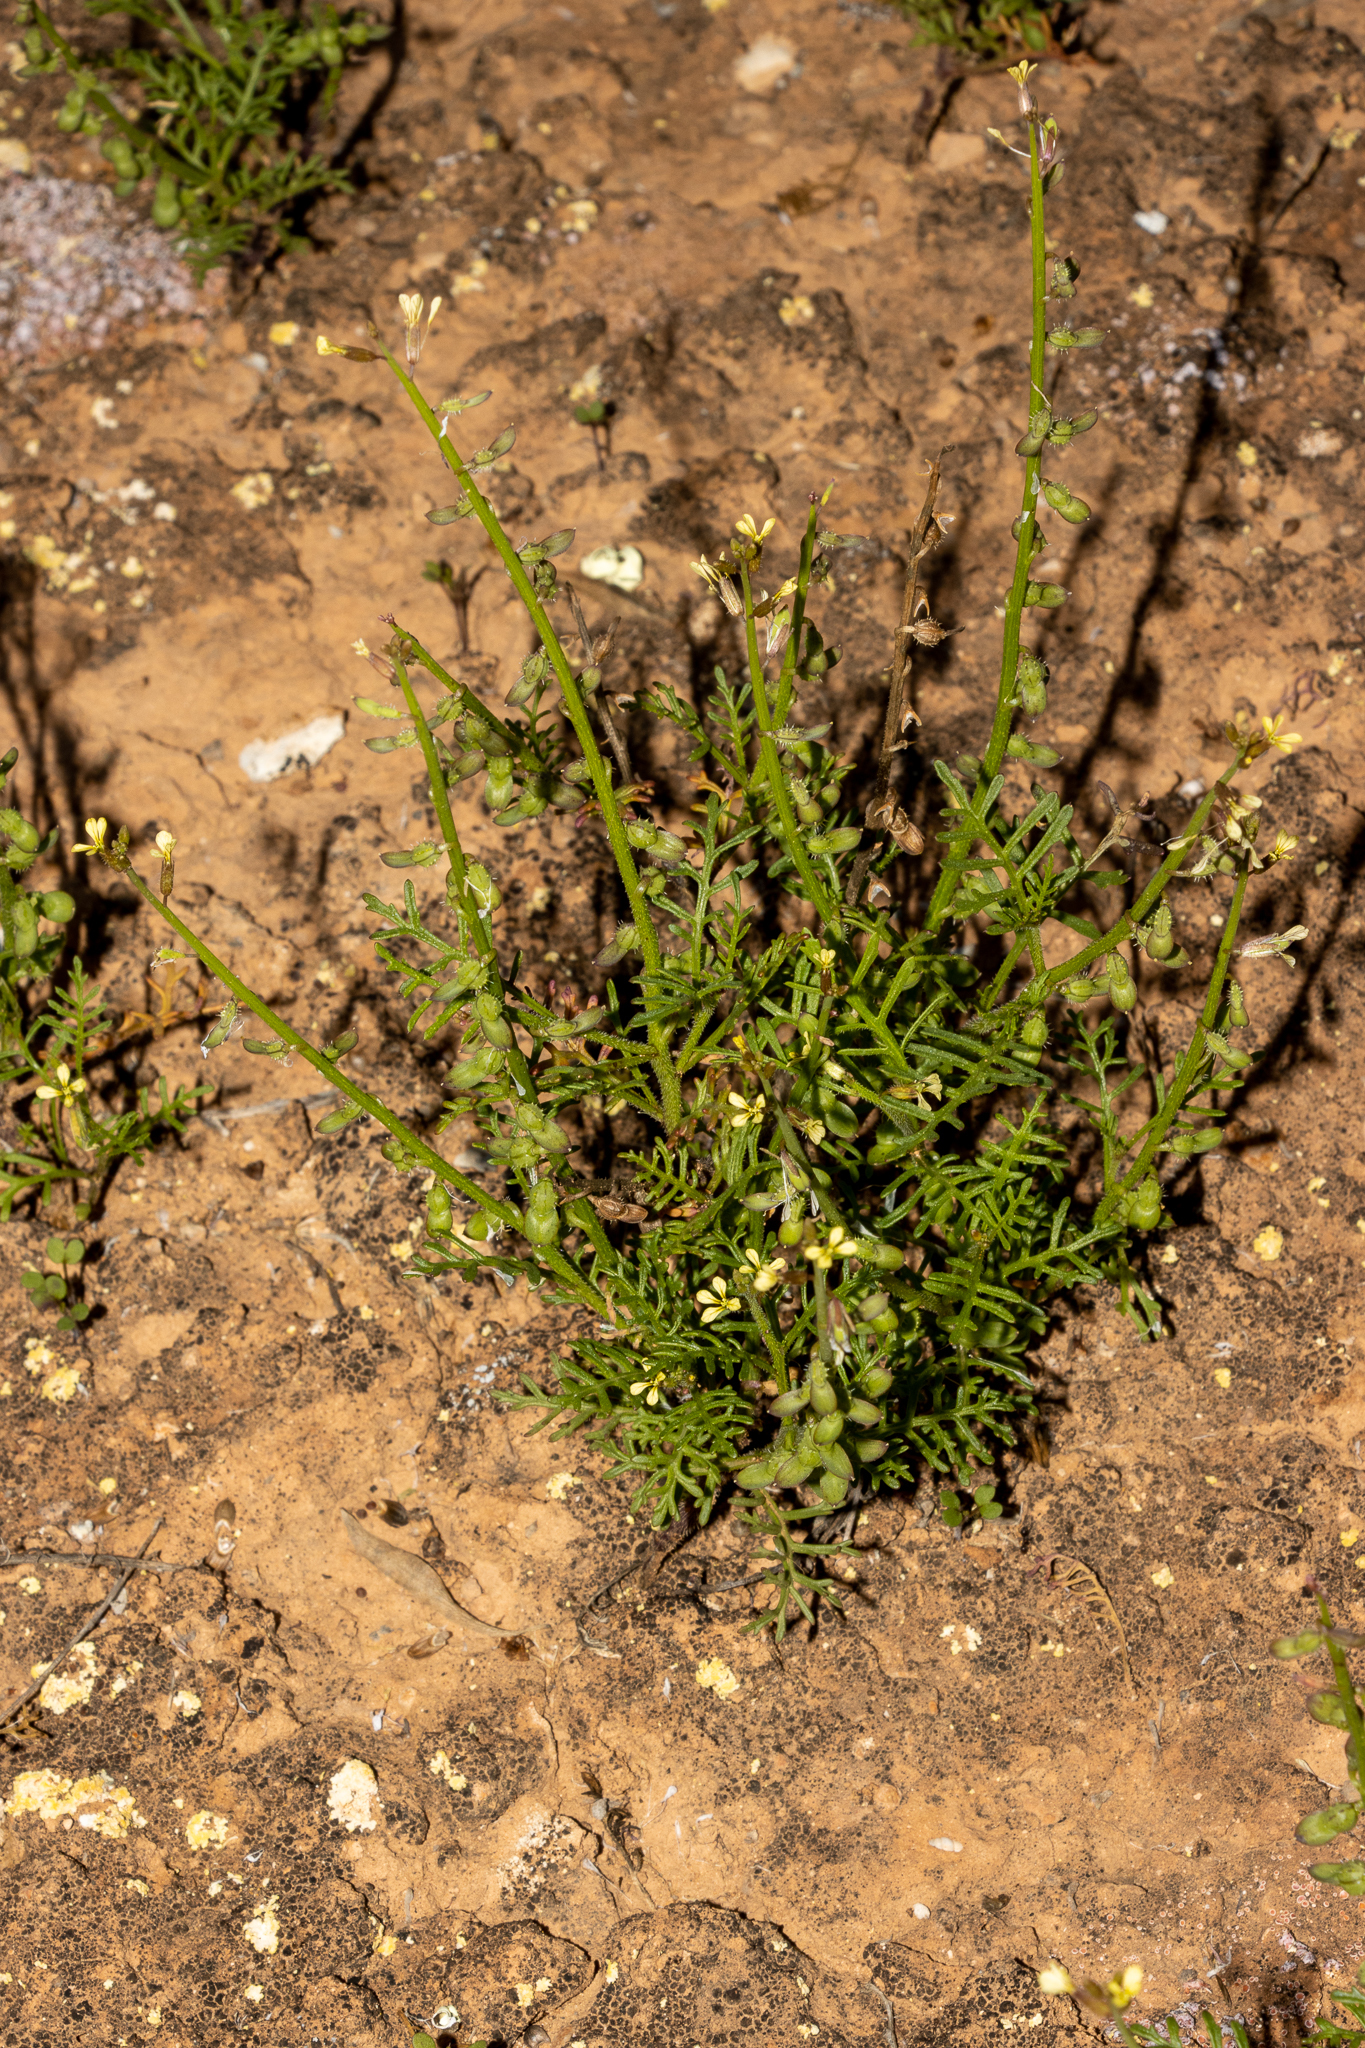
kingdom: Plantae
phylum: Tracheophyta
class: Magnoliopsida
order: Brassicales
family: Brassicaceae
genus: Carrichtera
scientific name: Carrichtera annua
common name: Cress rocket
